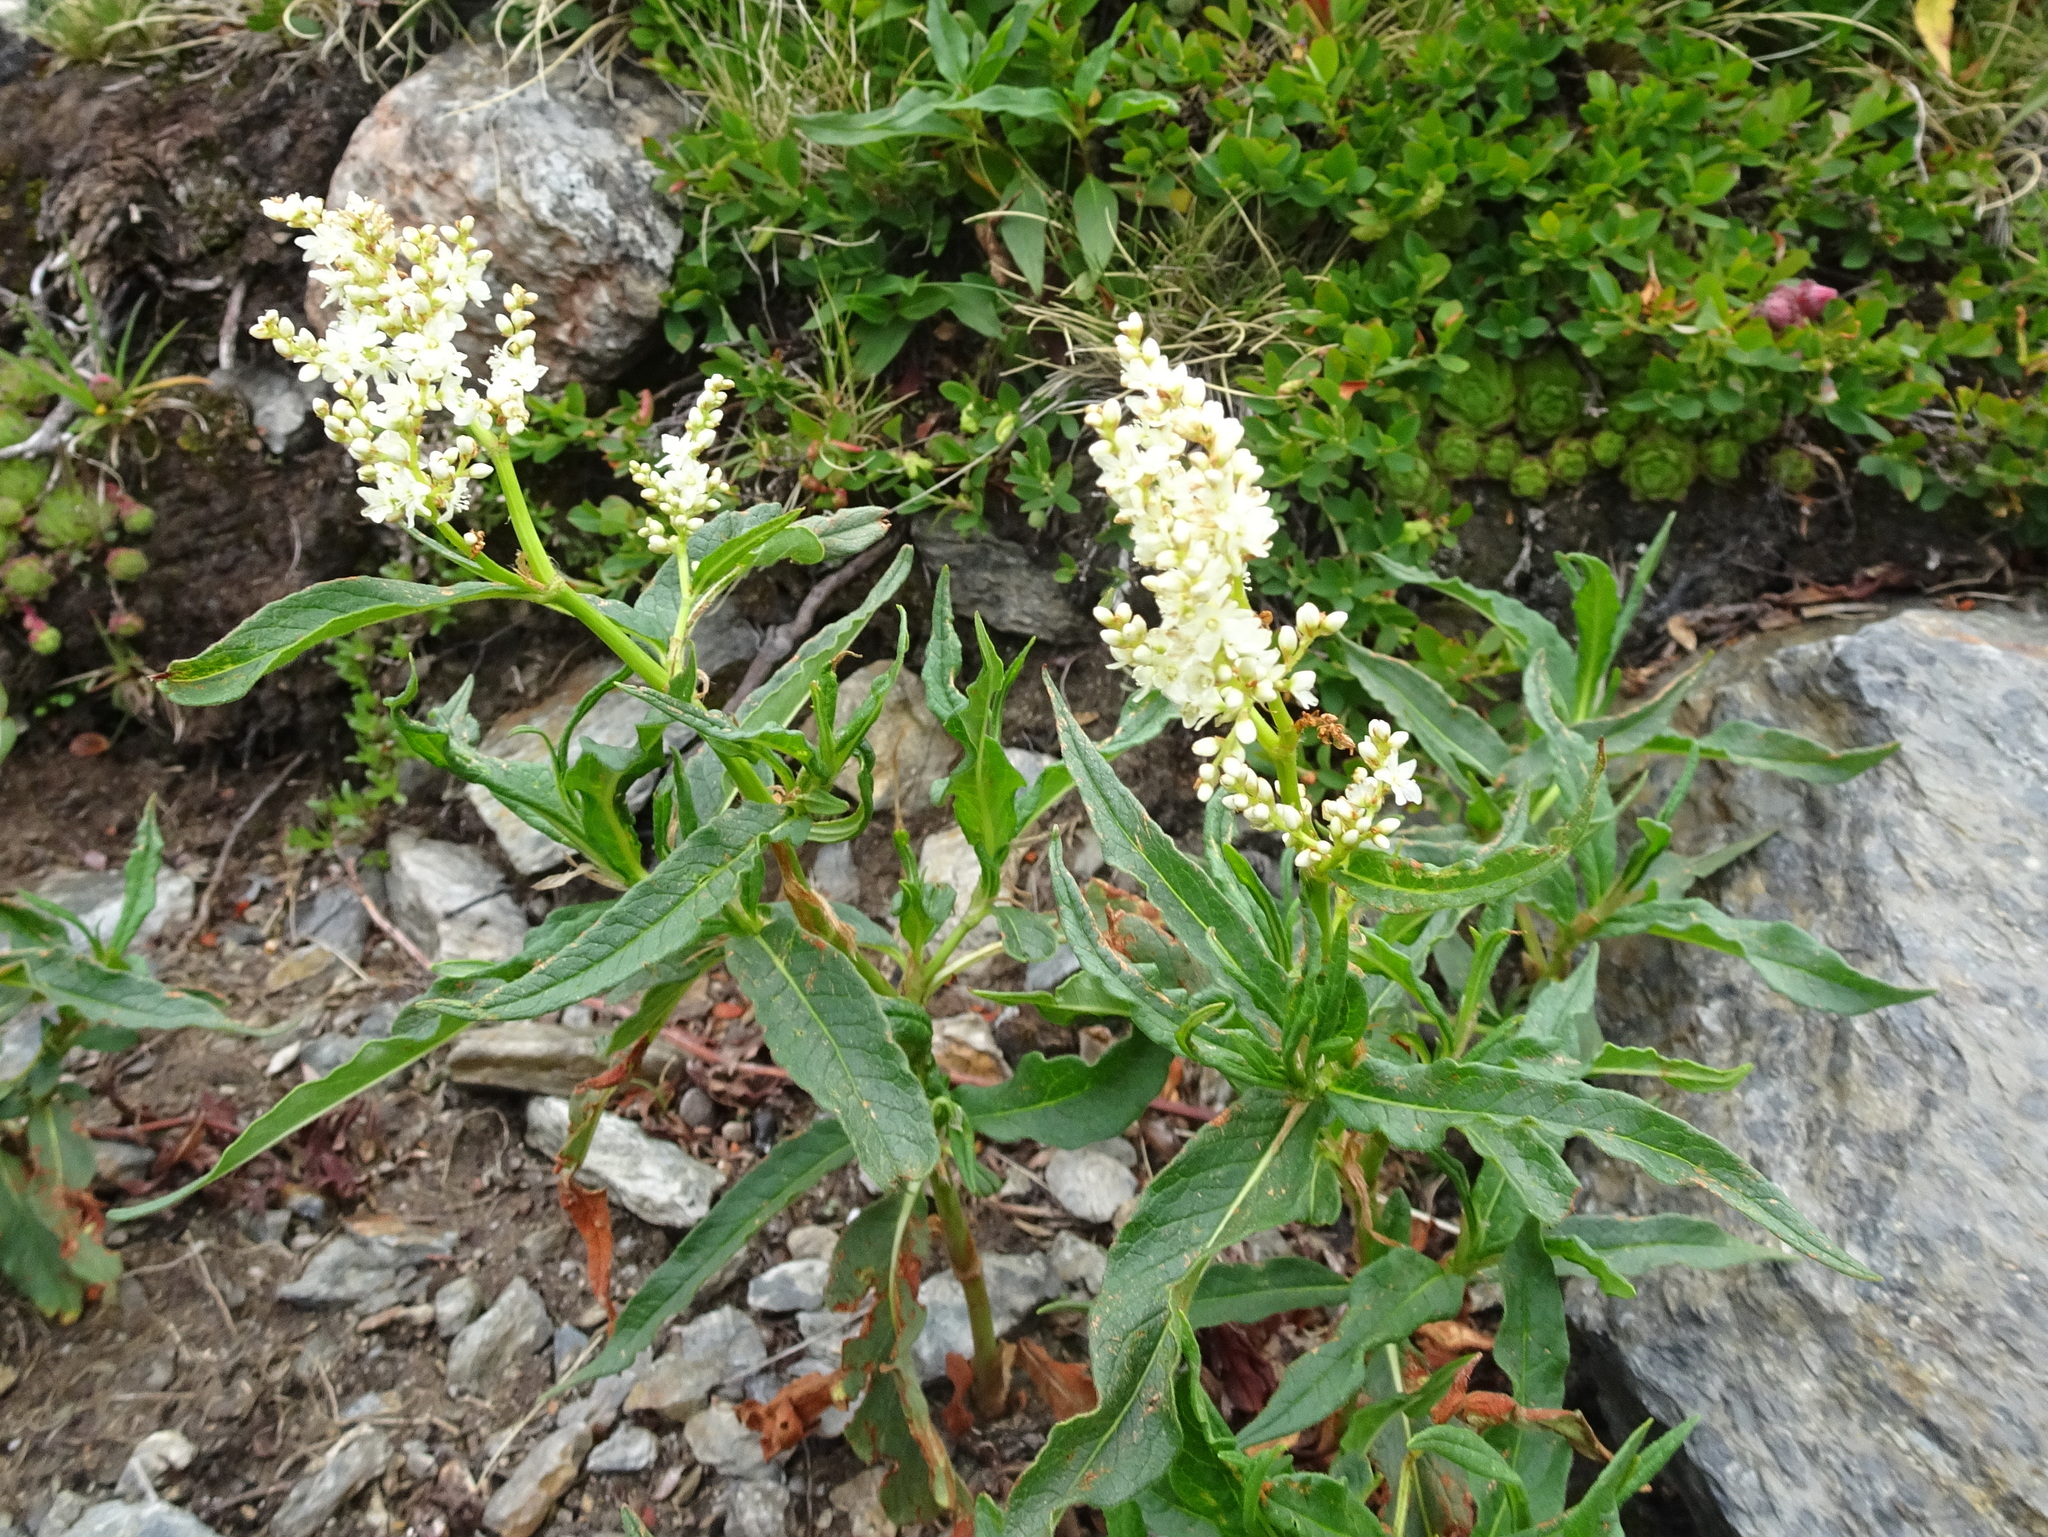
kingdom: Plantae
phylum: Tracheophyta
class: Magnoliopsida
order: Caryophyllales
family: Polygonaceae
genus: Koenigia
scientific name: Koenigia alpina
